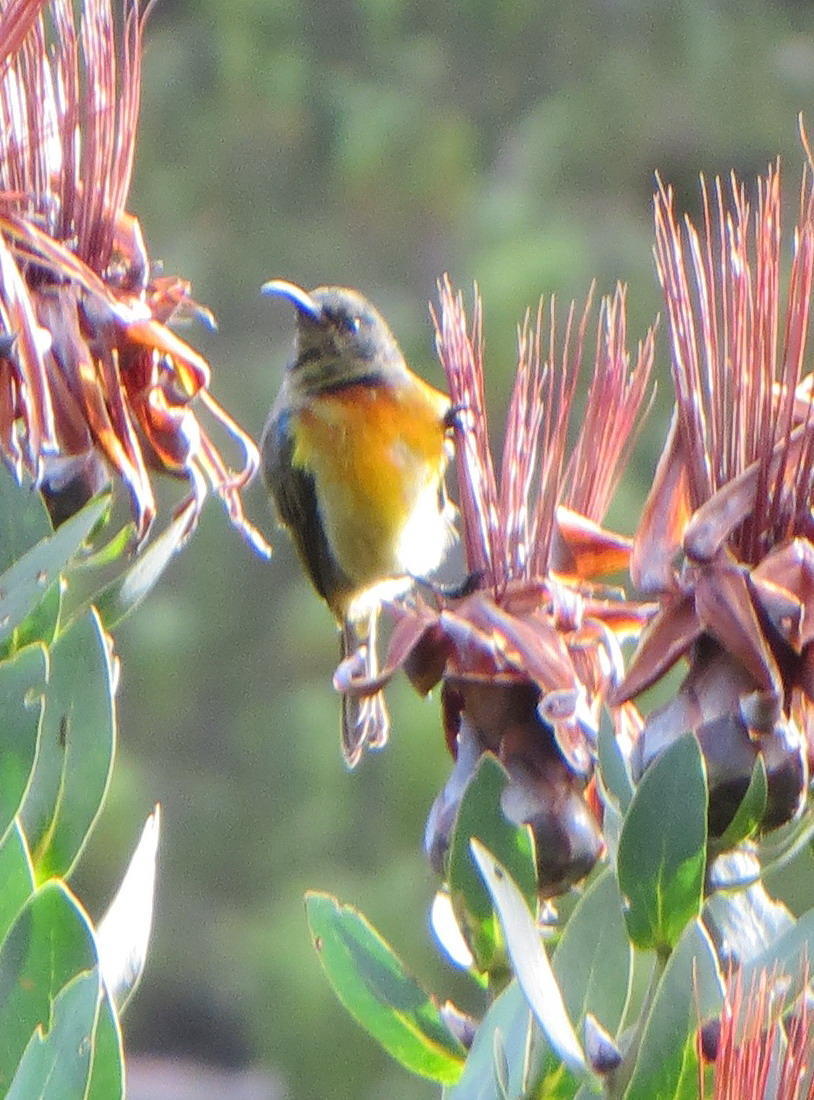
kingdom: Animalia
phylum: Chordata
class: Aves
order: Passeriformes
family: Nectariniidae
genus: Anthobaphes
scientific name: Anthobaphes violacea
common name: Orange-breasted sunbird
